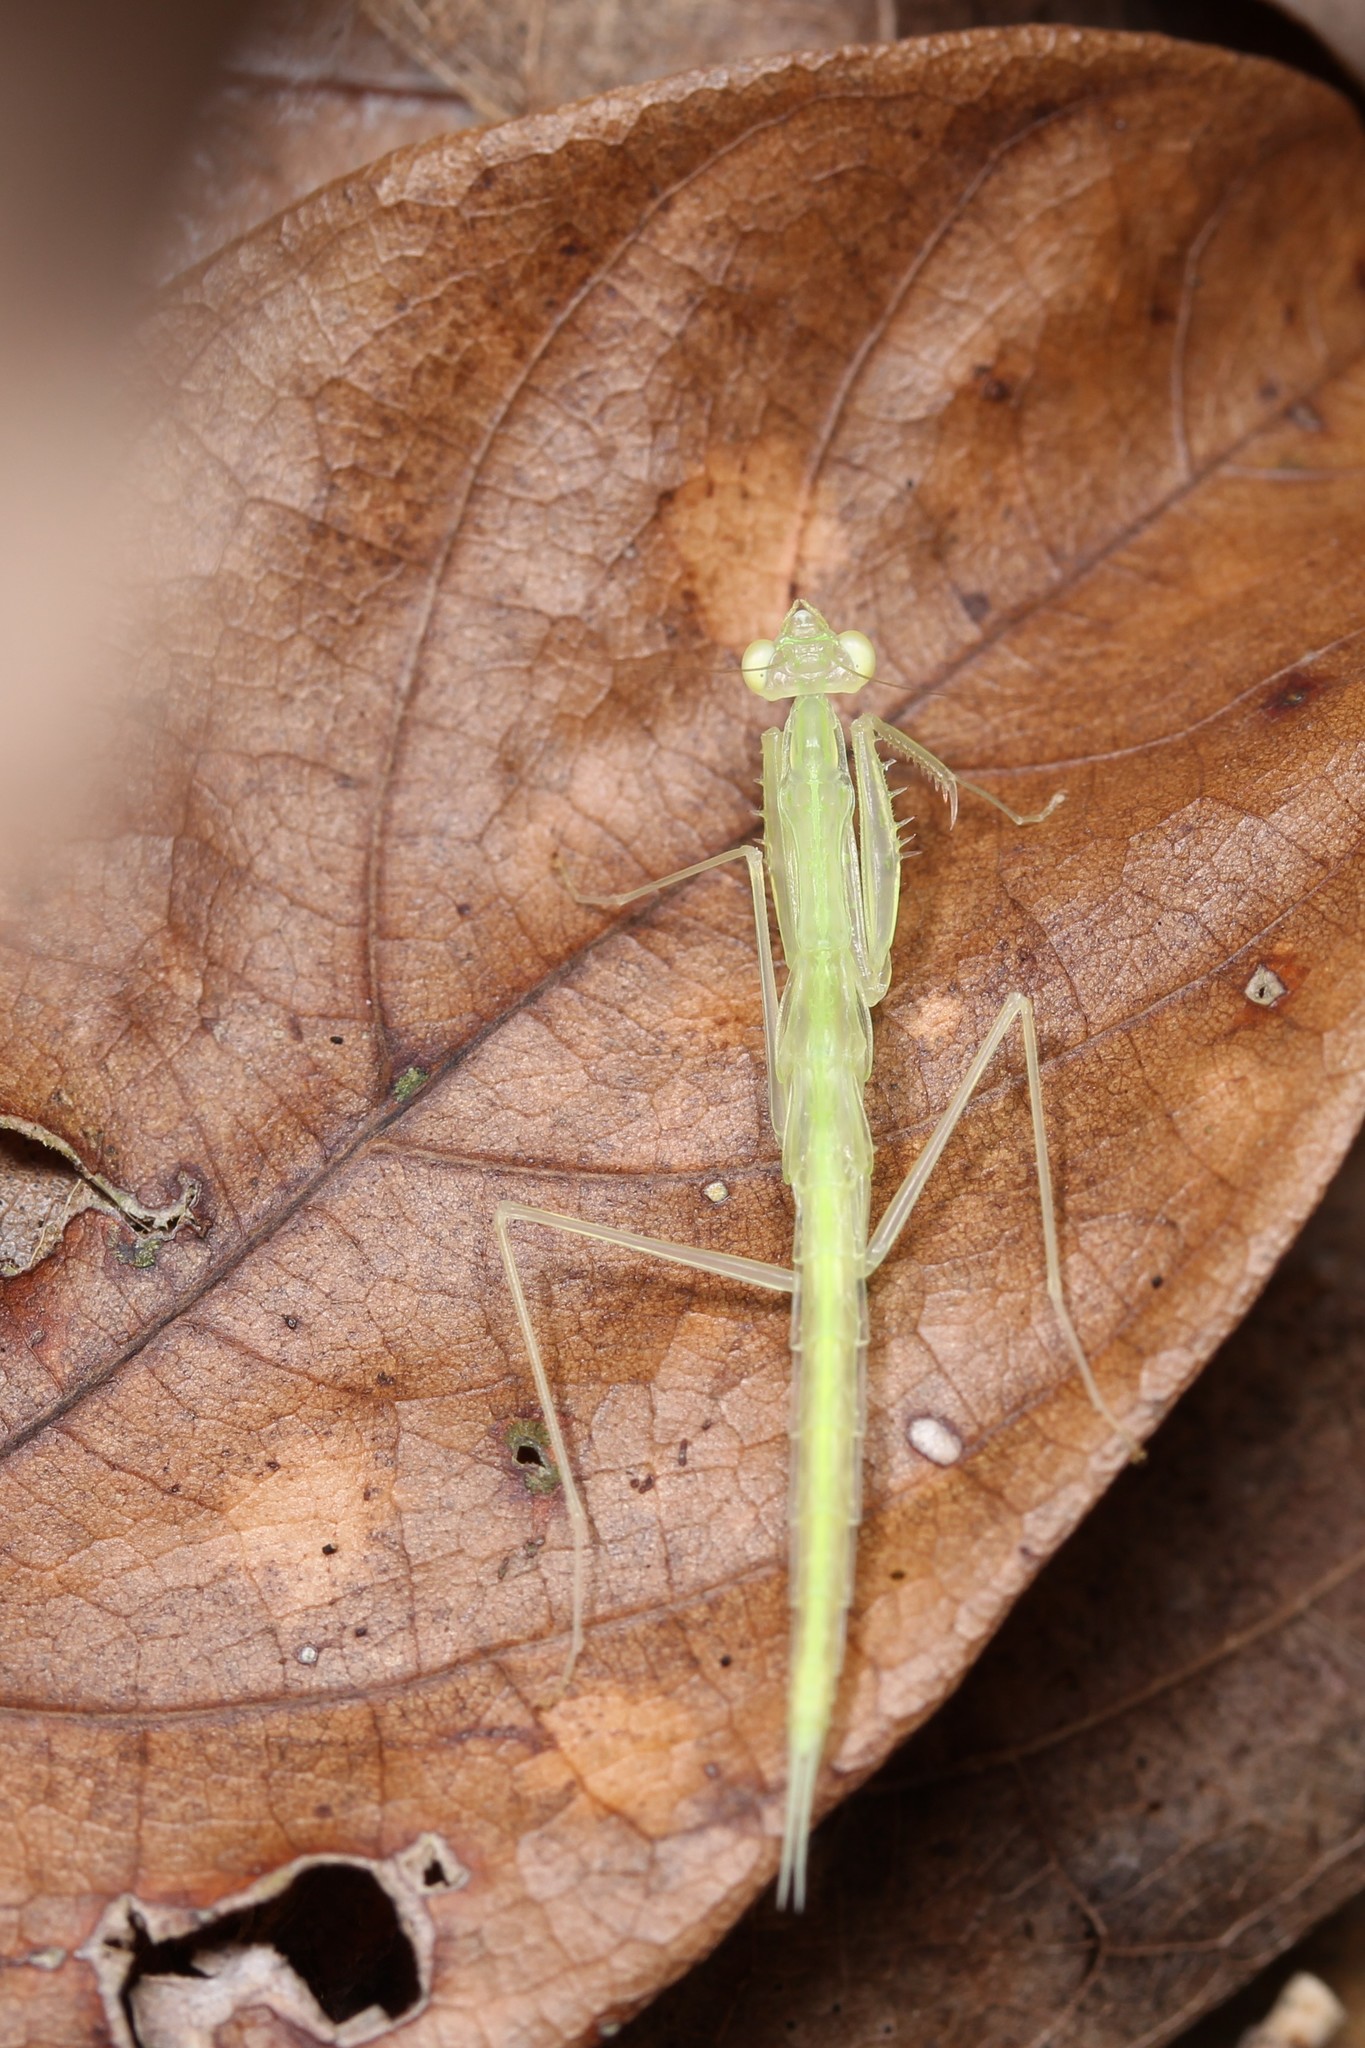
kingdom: Animalia
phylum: Arthropoda
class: Insecta
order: Mantodea
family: Nanomantidae
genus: Sinomantis
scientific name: Sinomantis denticulata
